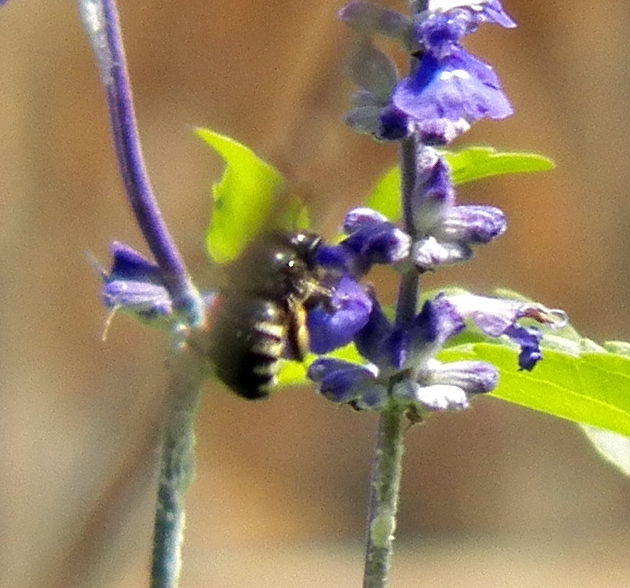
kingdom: Animalia
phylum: Arthropoda
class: Insecta
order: Hymenoptera
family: Apidae
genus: Xylocopa
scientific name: Xylocopa tabaniformis
